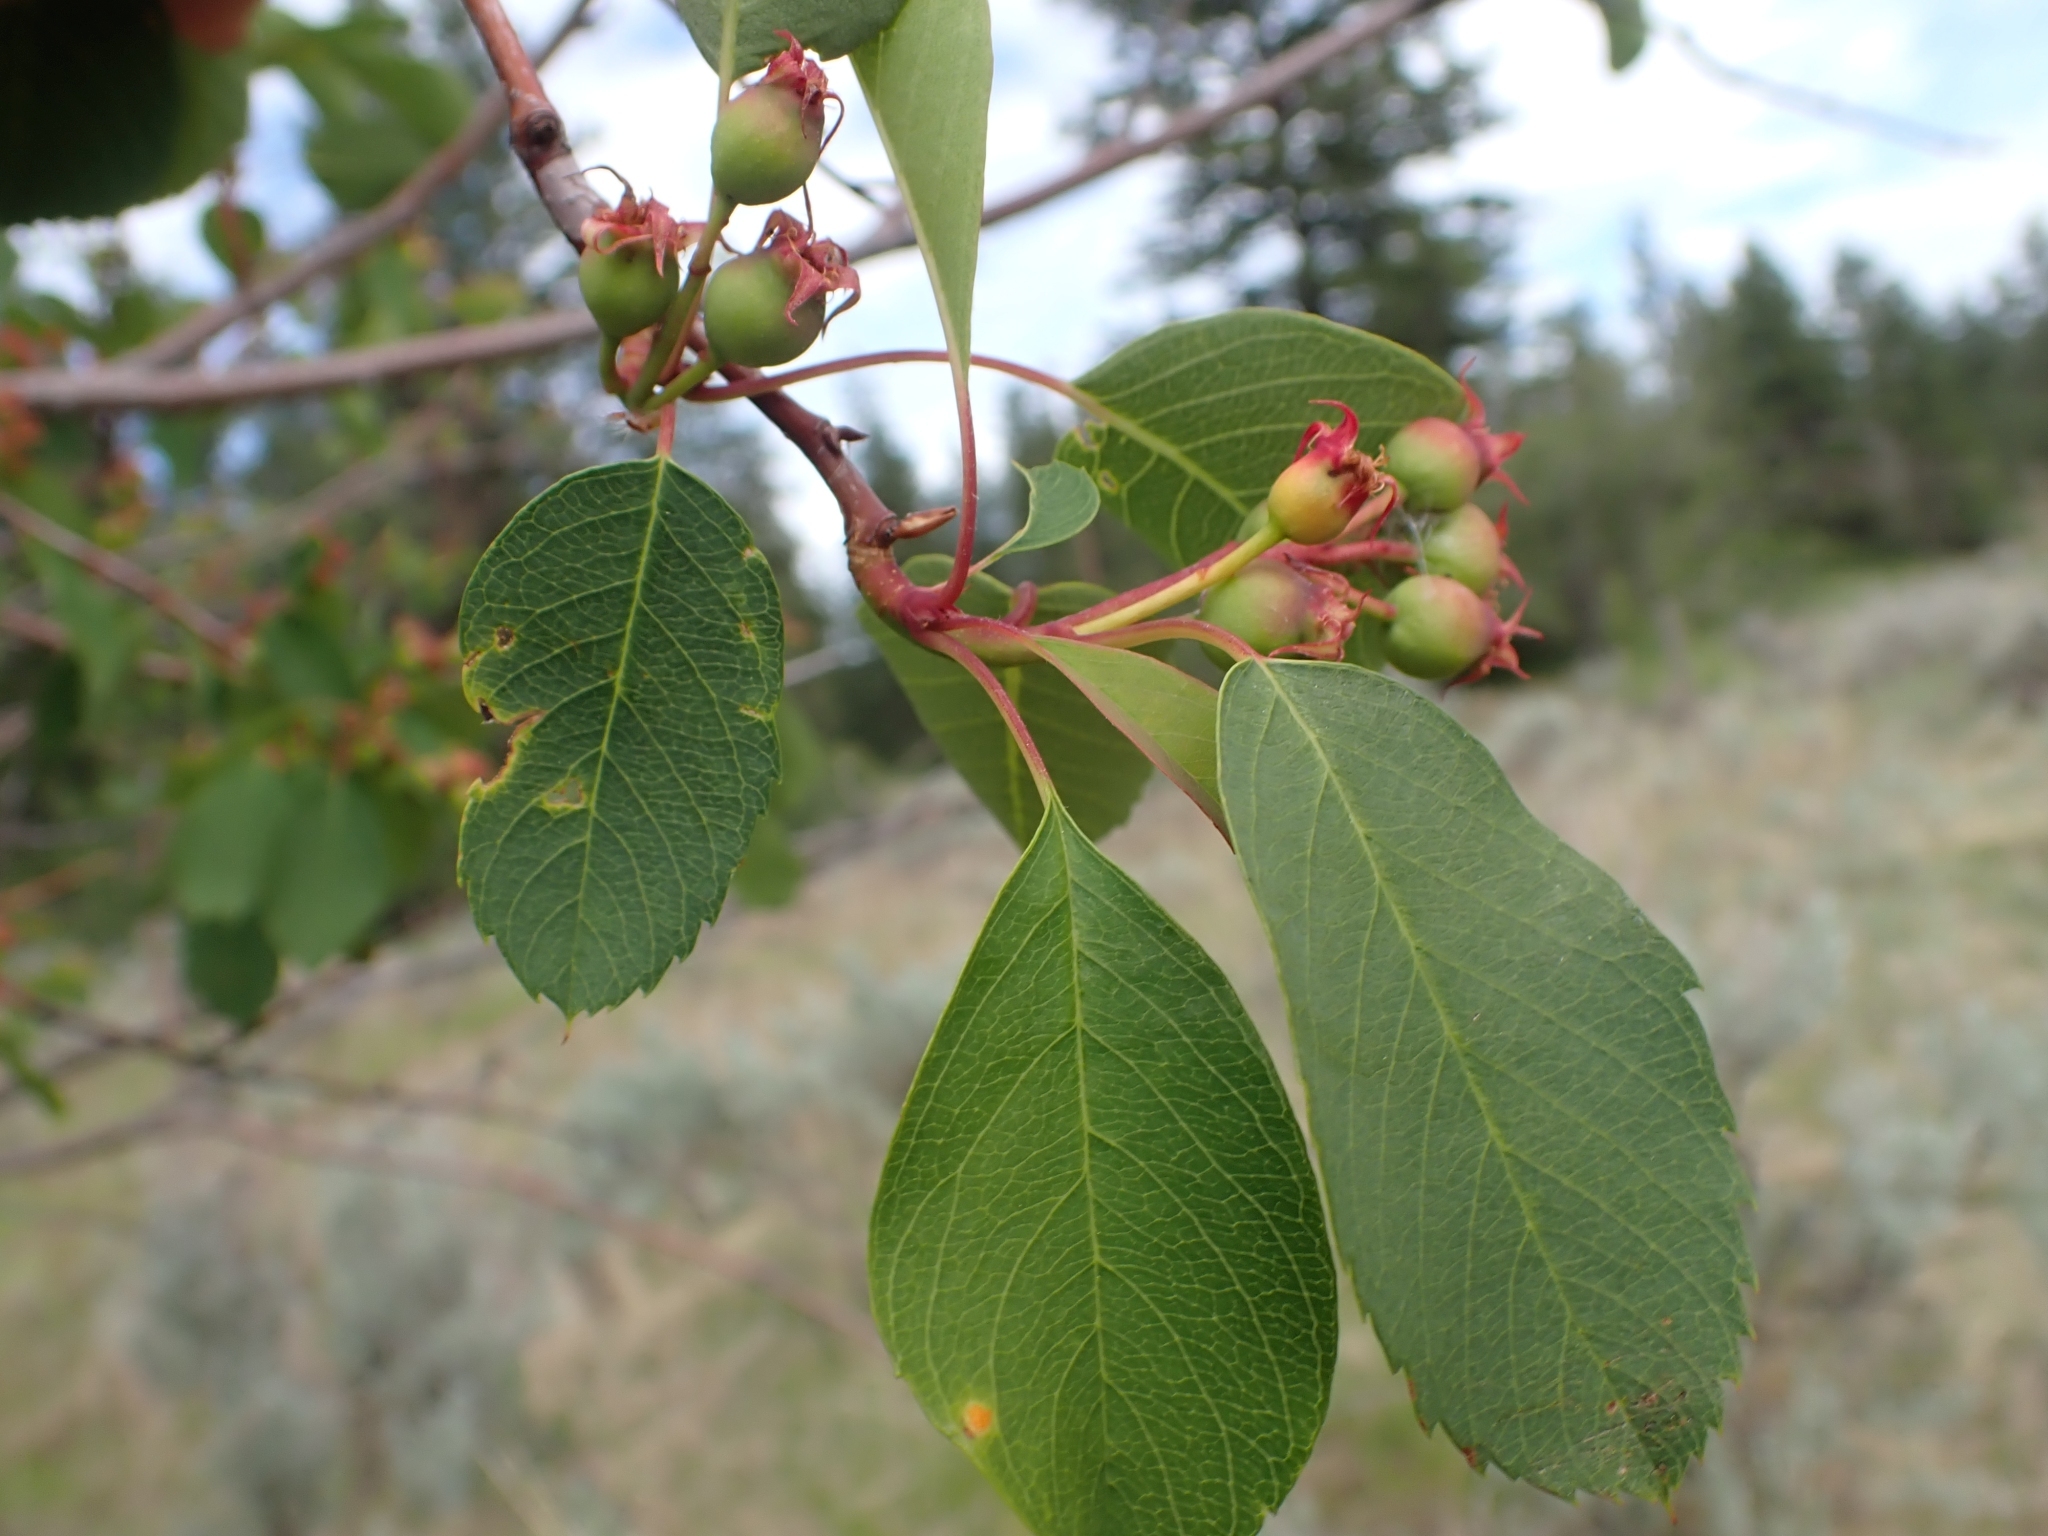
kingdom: Plantae
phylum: Tracheophyta
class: Magnoliopsida
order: Rosales
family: Rosaceae
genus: Amelanchier
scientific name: Amelanchier alnifolia
